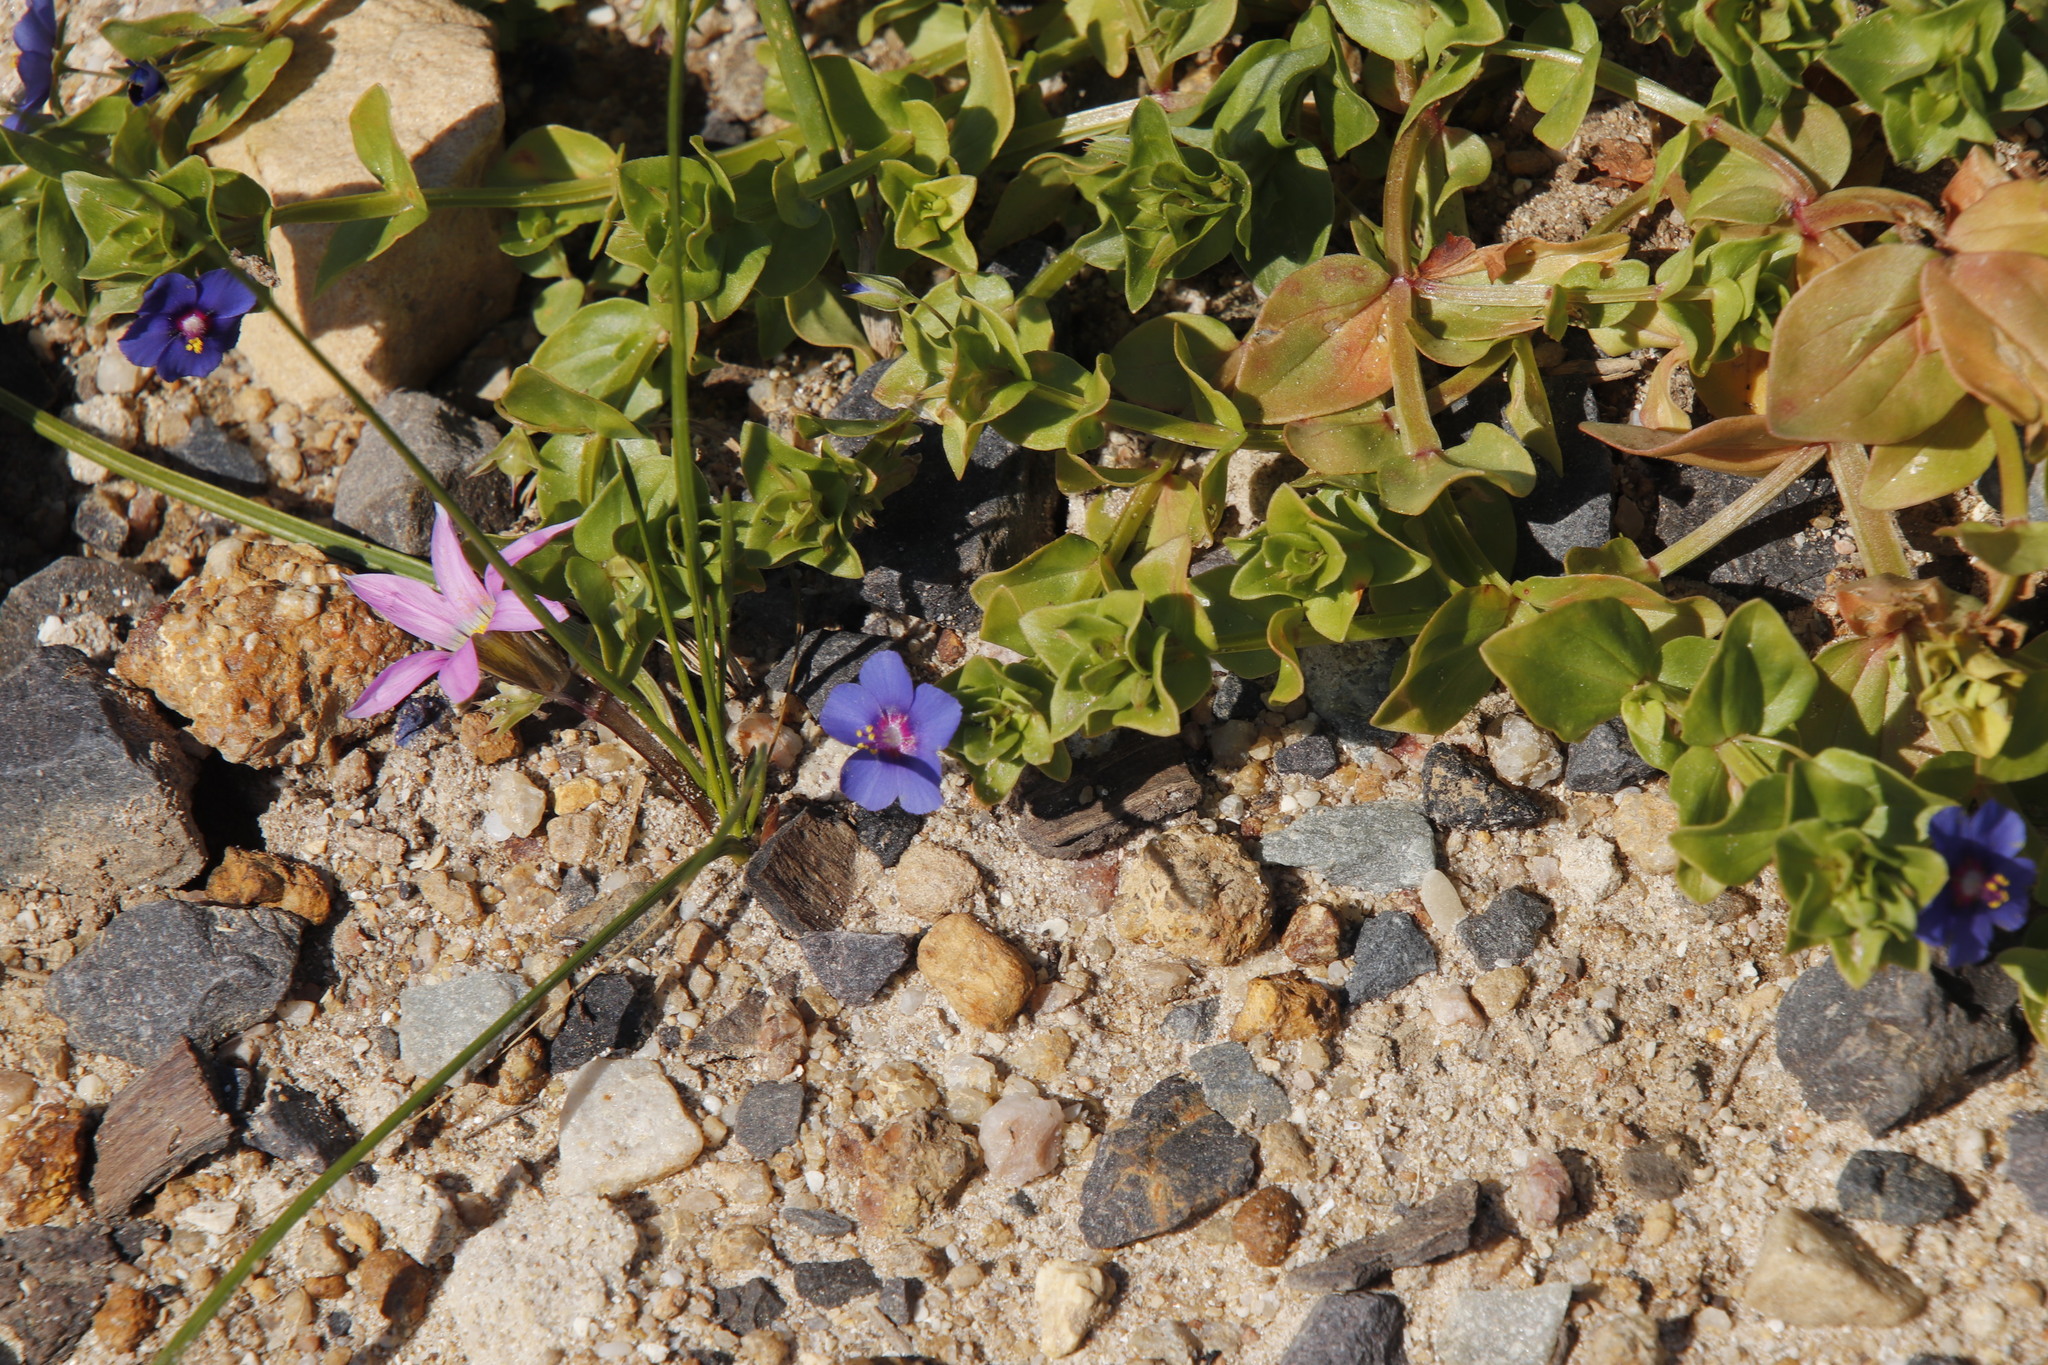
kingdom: Plantae
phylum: Tracheophyta
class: Magnoliopsida
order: Ericales
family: Primulaceae
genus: Lysimachia
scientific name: Lysimachia loeflingii
